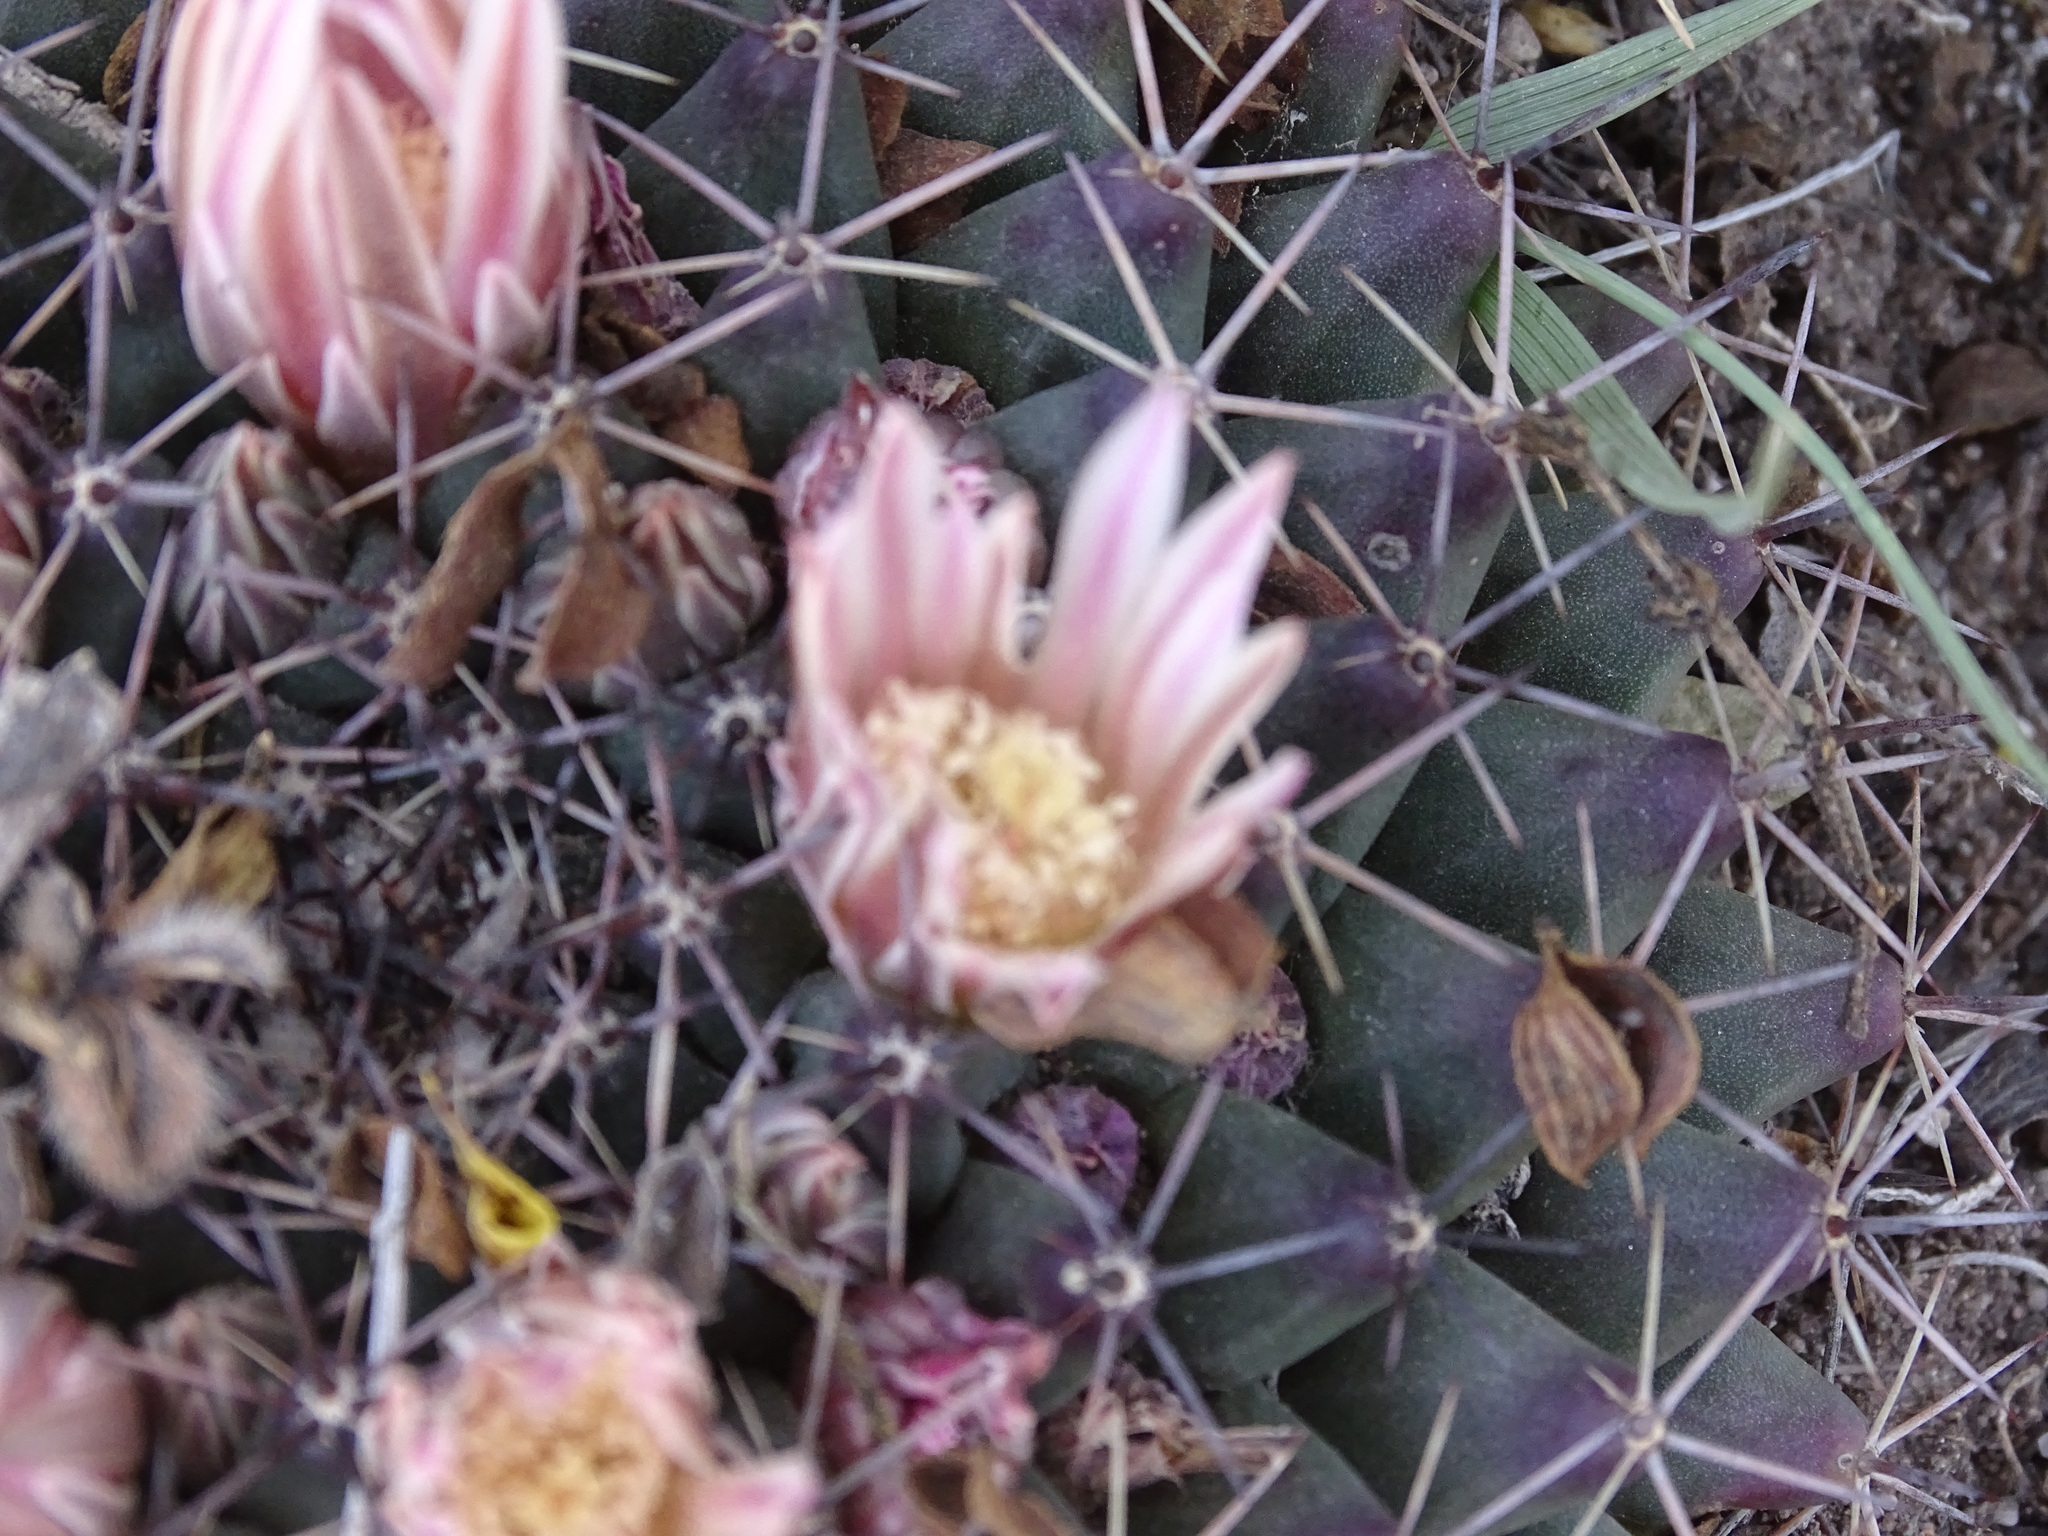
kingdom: Plantae
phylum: Tracheophyta
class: Magnoliopsida
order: Caryophyllales
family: Cactaceae
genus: Mammillaria
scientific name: Mammillaria heyderi
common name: Little nipple cactus
